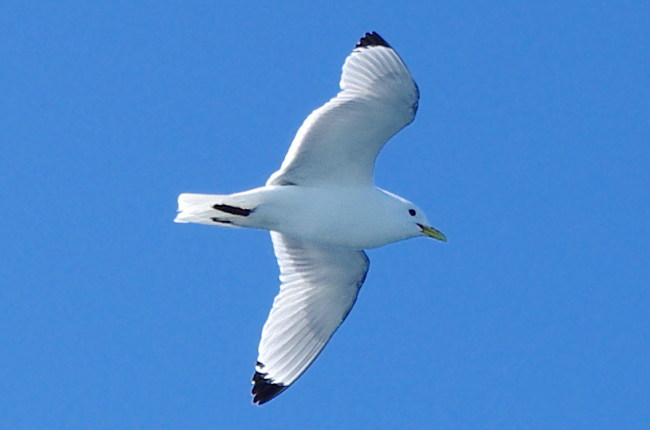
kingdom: Animalia
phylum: Chordata
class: Aves
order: Charadriiformes
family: Laridae
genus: Rissa
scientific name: Rissa tridactyla
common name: Black-legged kittiwake
